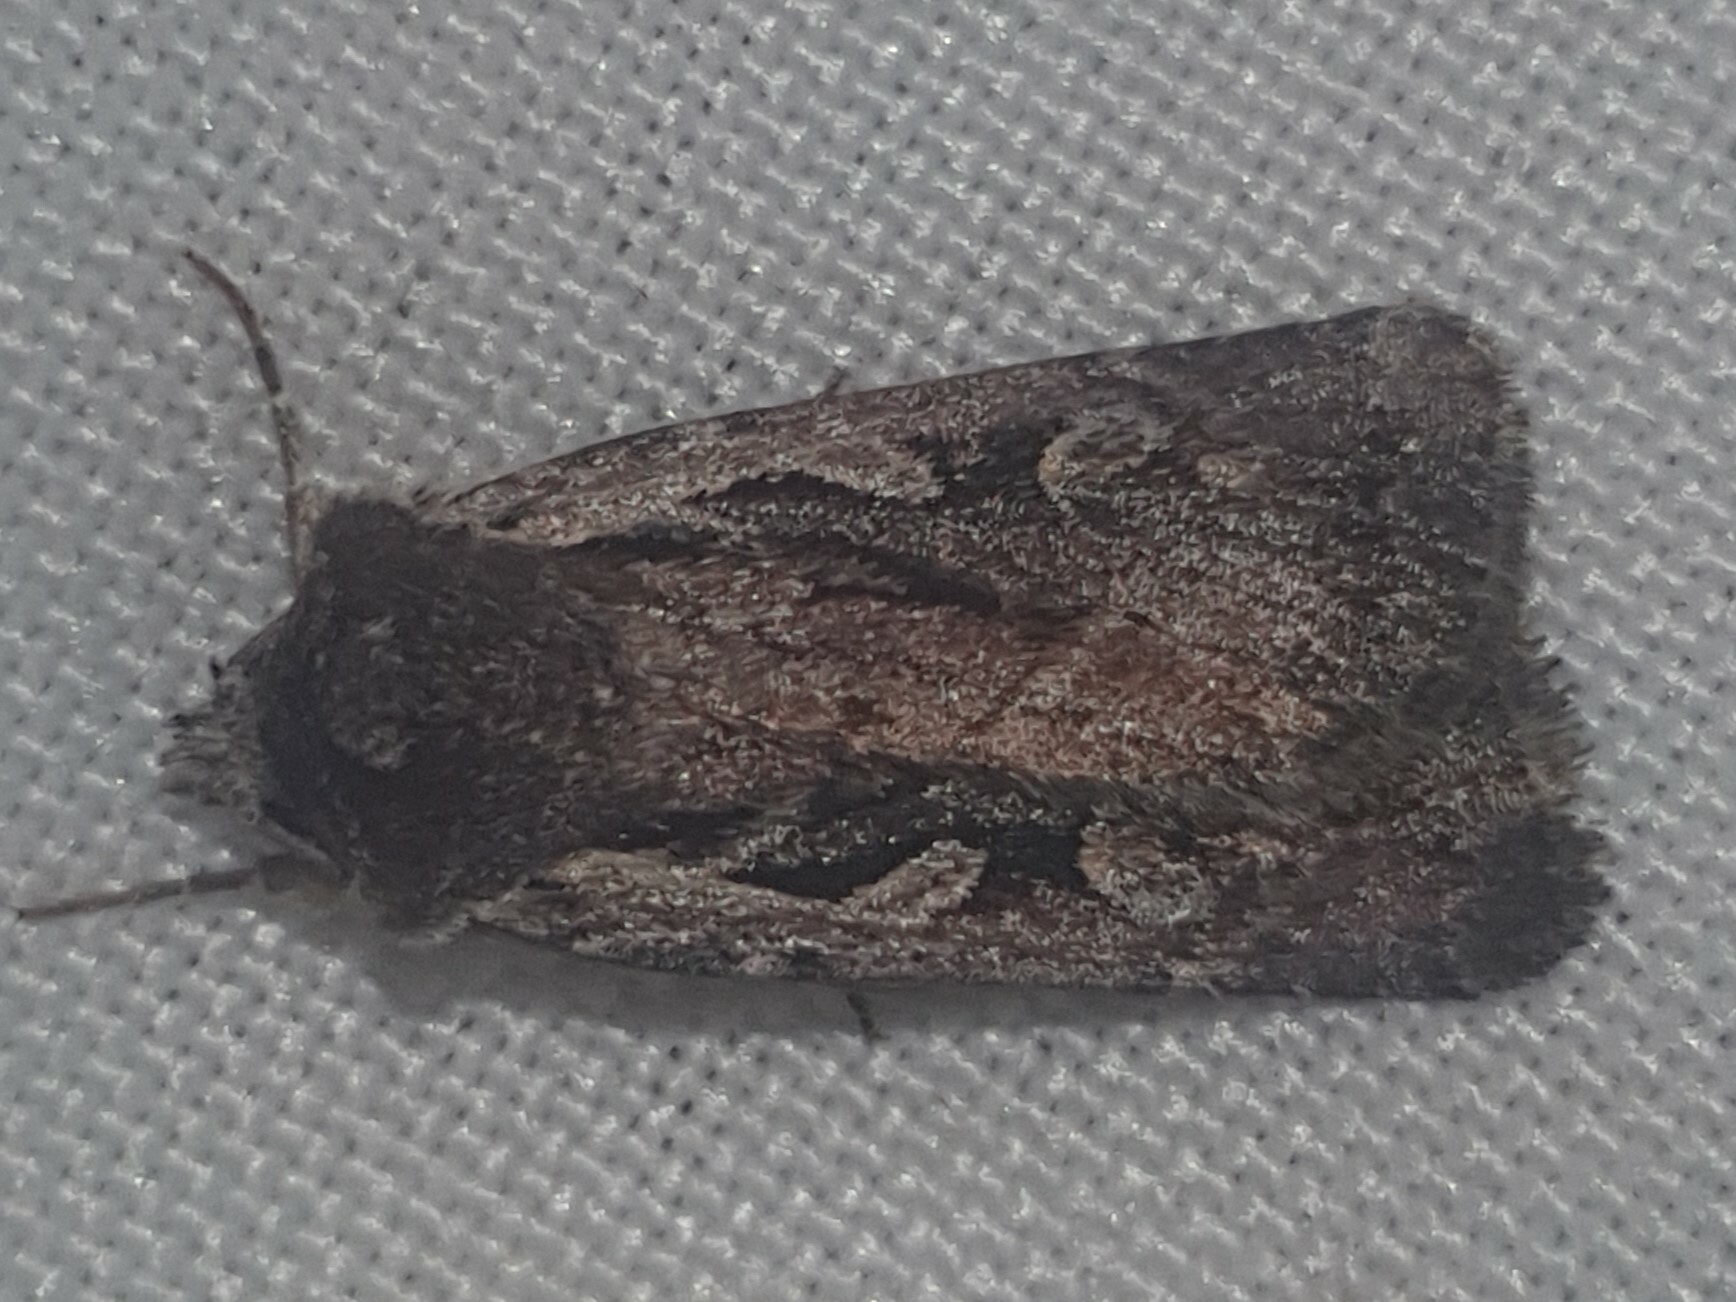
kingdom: Animalia
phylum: Arthropoda
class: Insecta
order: Lepidoptera
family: Noctuidae
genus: Xestia
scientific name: Xestia agathina
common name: Heath rustic
